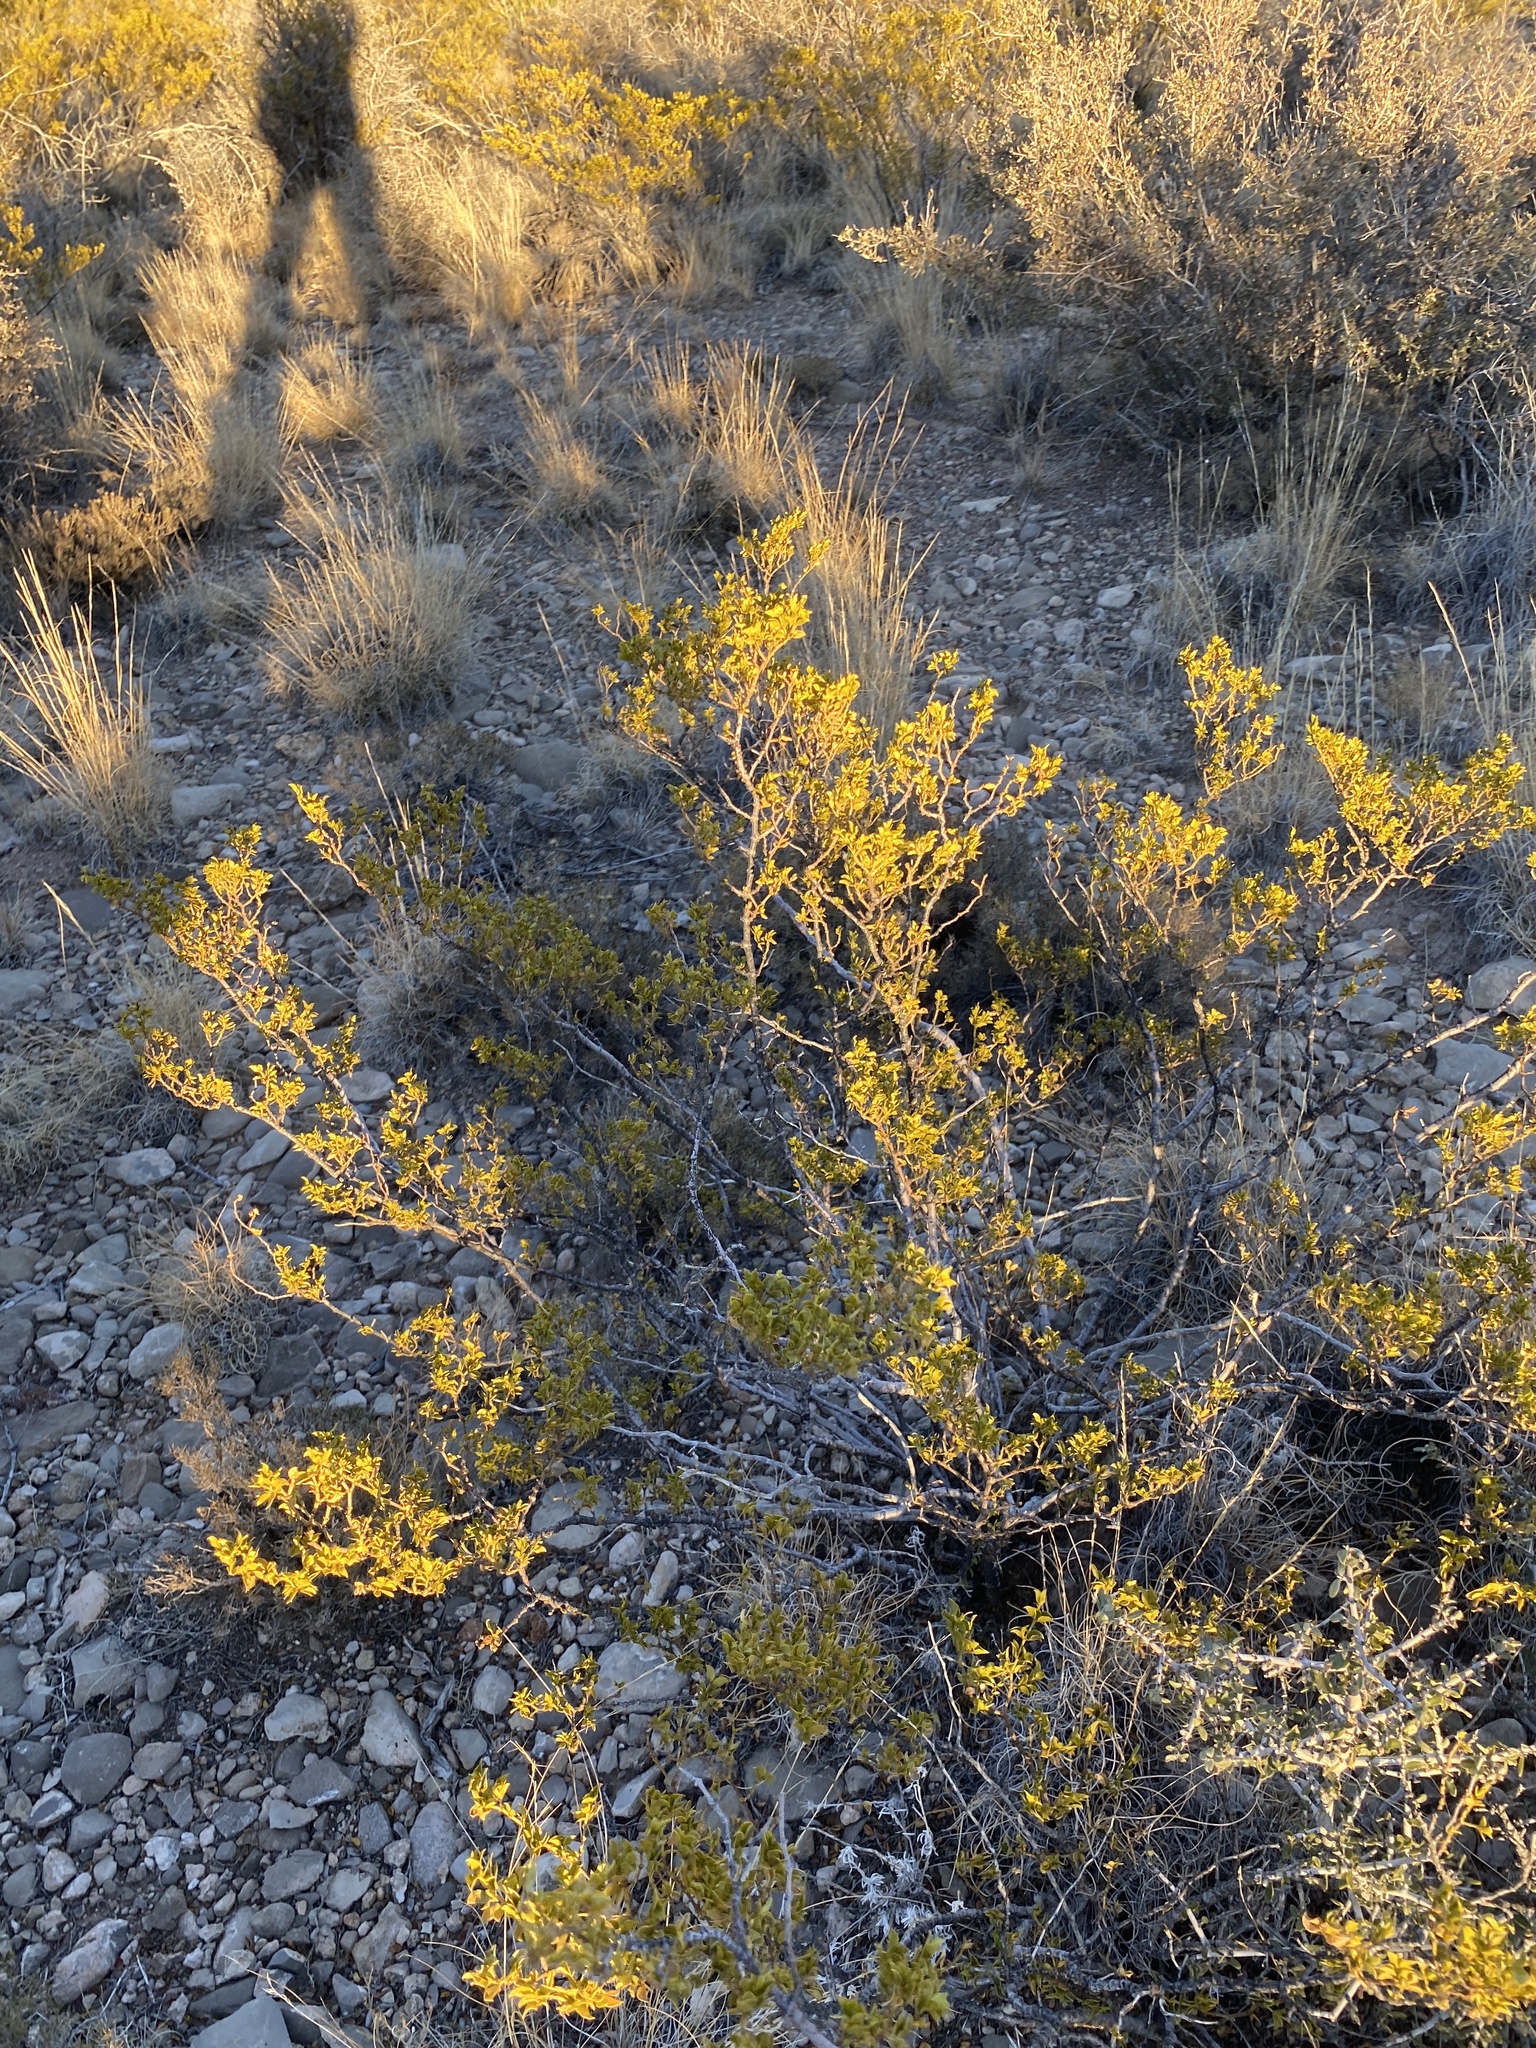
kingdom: Plantae
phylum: Tracheophyta
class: Magnoliopsida
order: Zygophyllales
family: Zygophyllaceae
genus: Larrea
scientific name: Larrea tridentata
